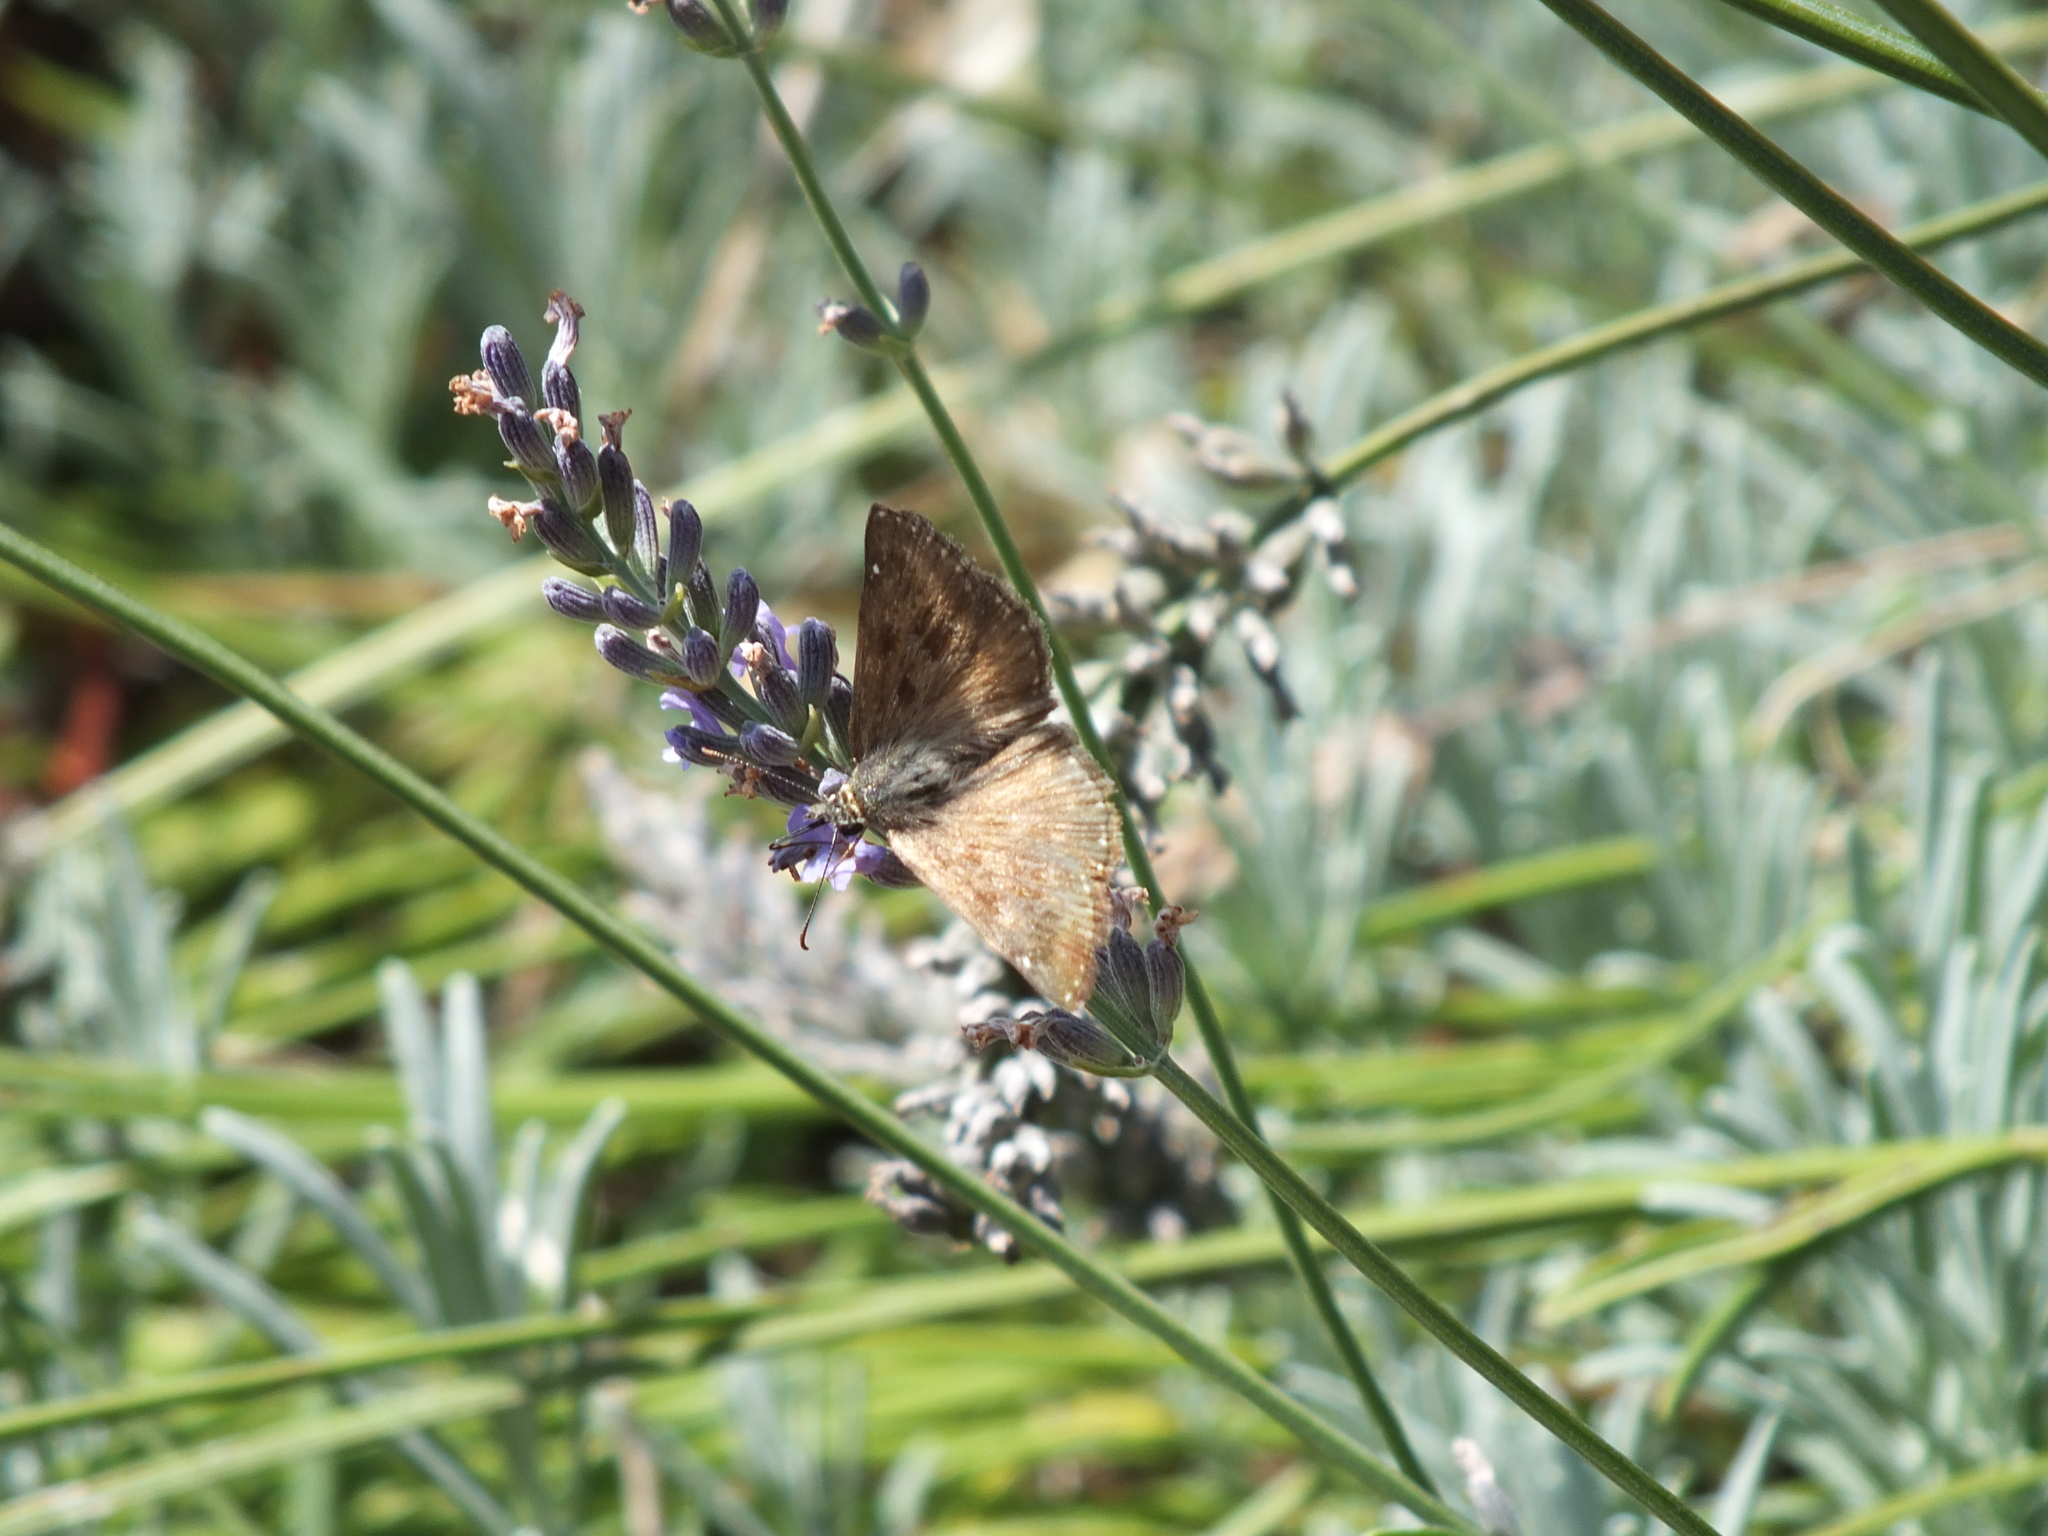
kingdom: Animalia
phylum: Arthropoda
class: Insecta
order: Lepidoptera
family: Hesperiidae
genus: Erynnis
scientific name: Erynnis tages
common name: Dingy skipper
